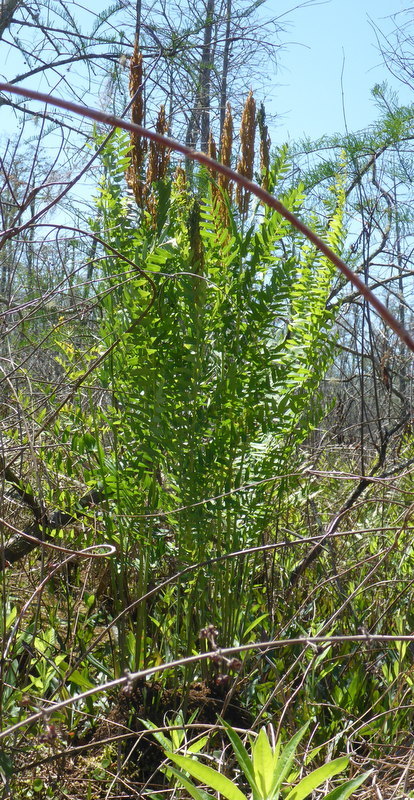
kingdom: Plantae
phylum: Tracheophyta
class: Polypodiopsida
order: Osmundales
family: Osmundaceae
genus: Osmunda
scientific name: Osmunda spectabilis
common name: American royal fern
